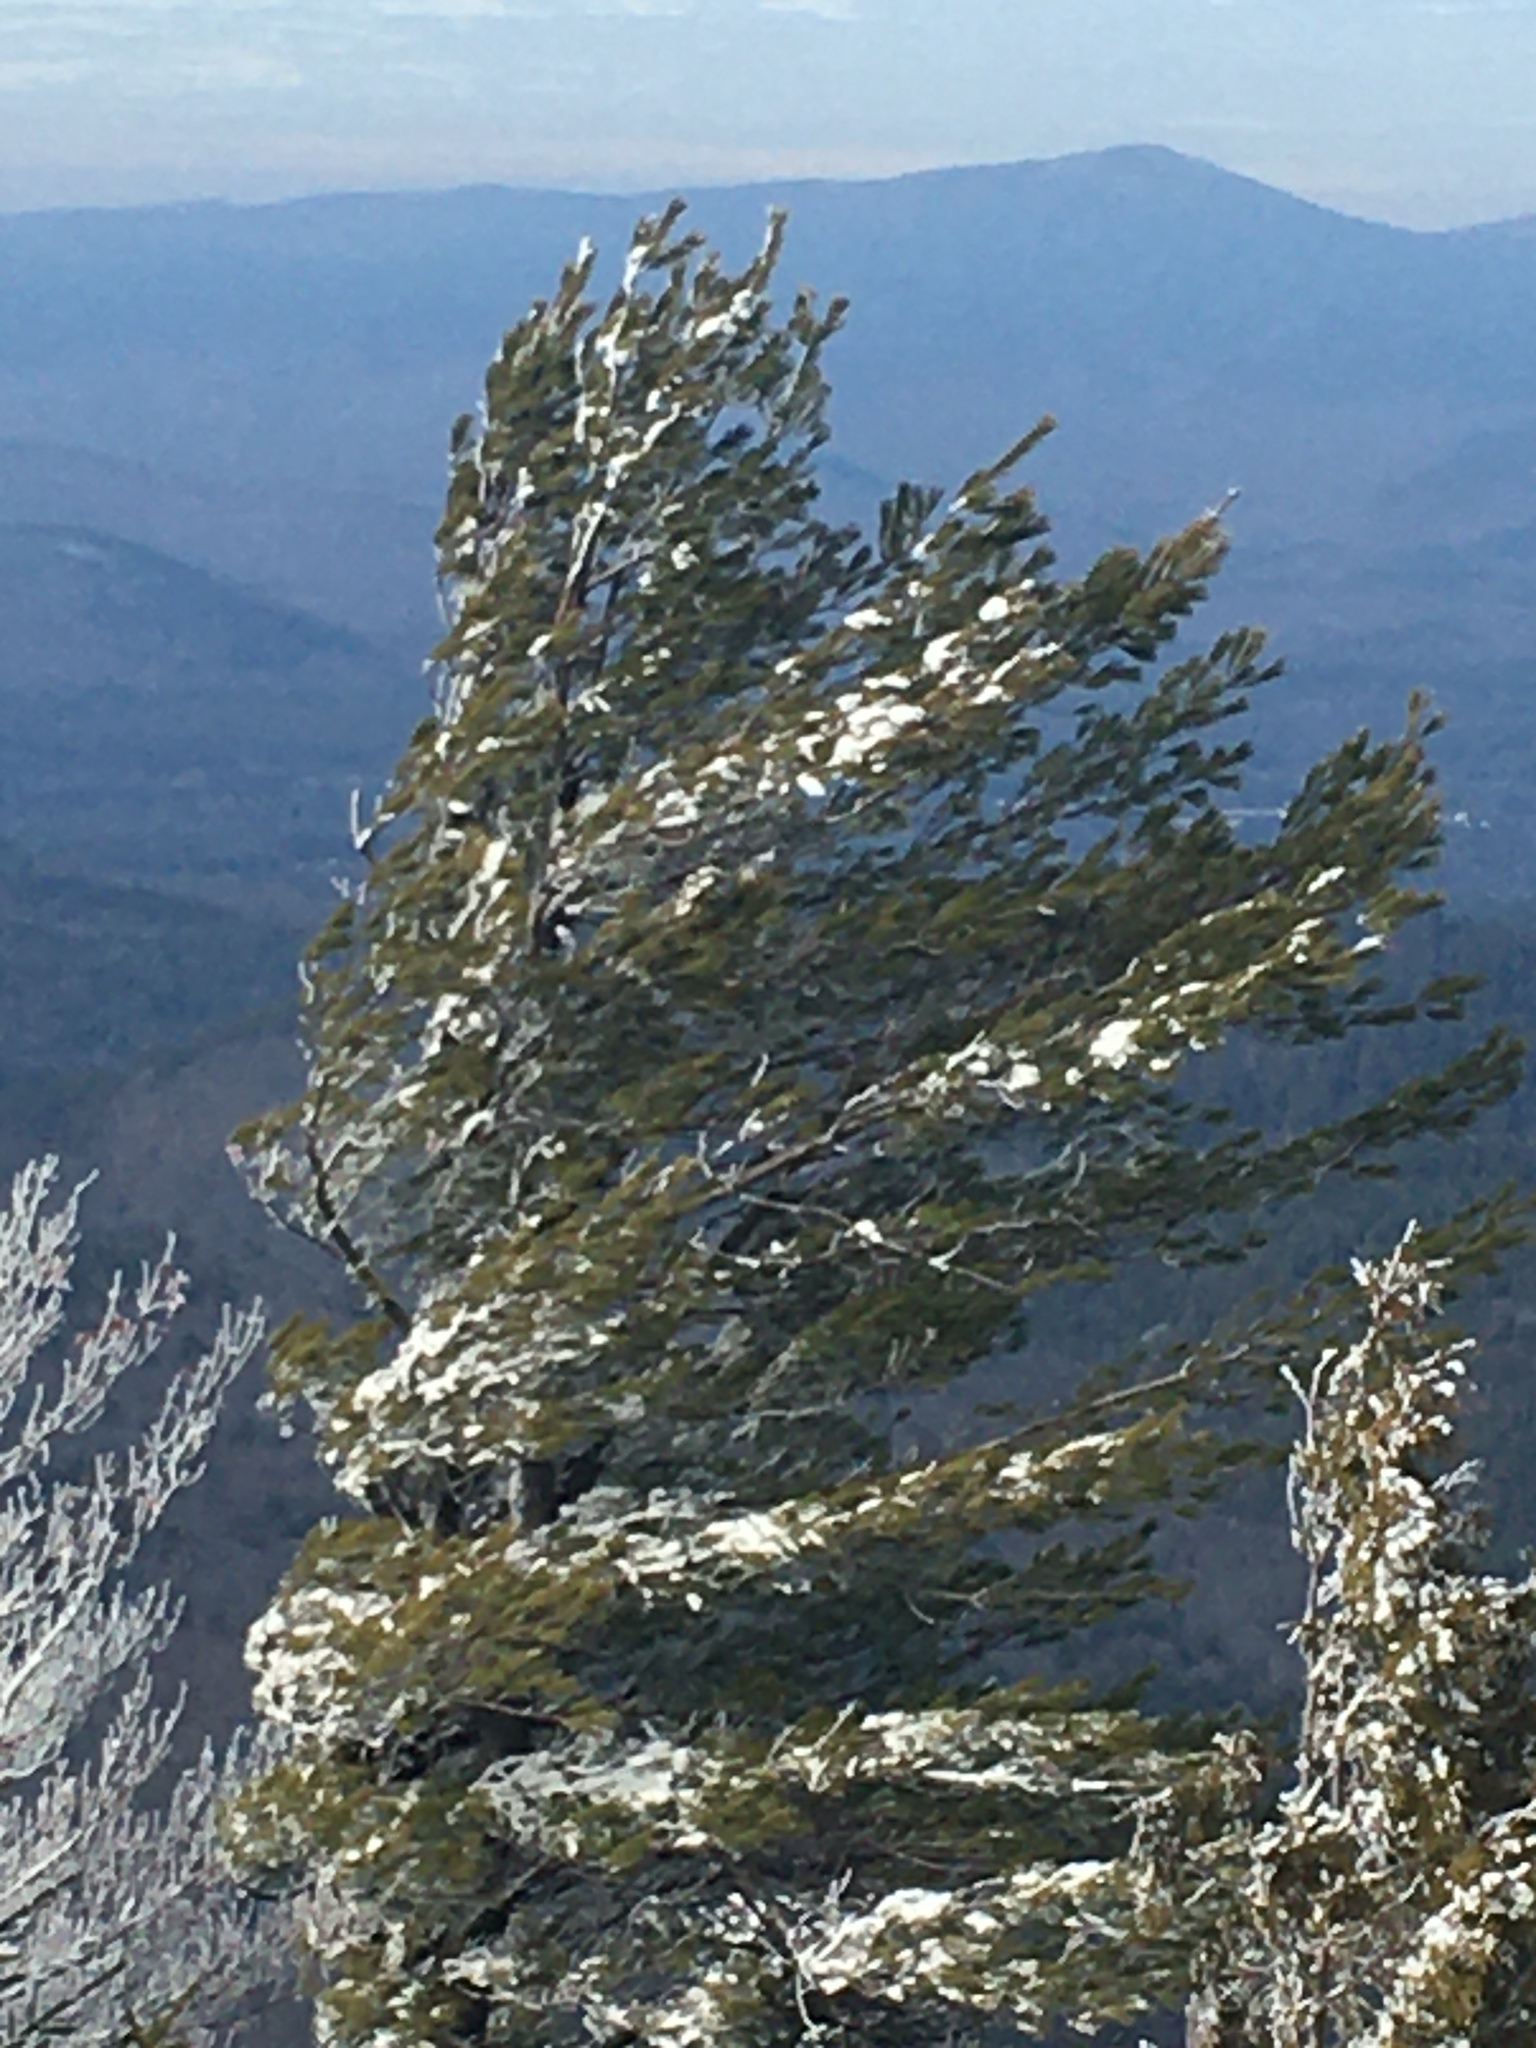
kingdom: Plantae
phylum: Tracheophyta
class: Pinopsida
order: Pinales
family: Pinaceae
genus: Pinus
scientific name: Pinus strobus
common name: Weymouth pine
